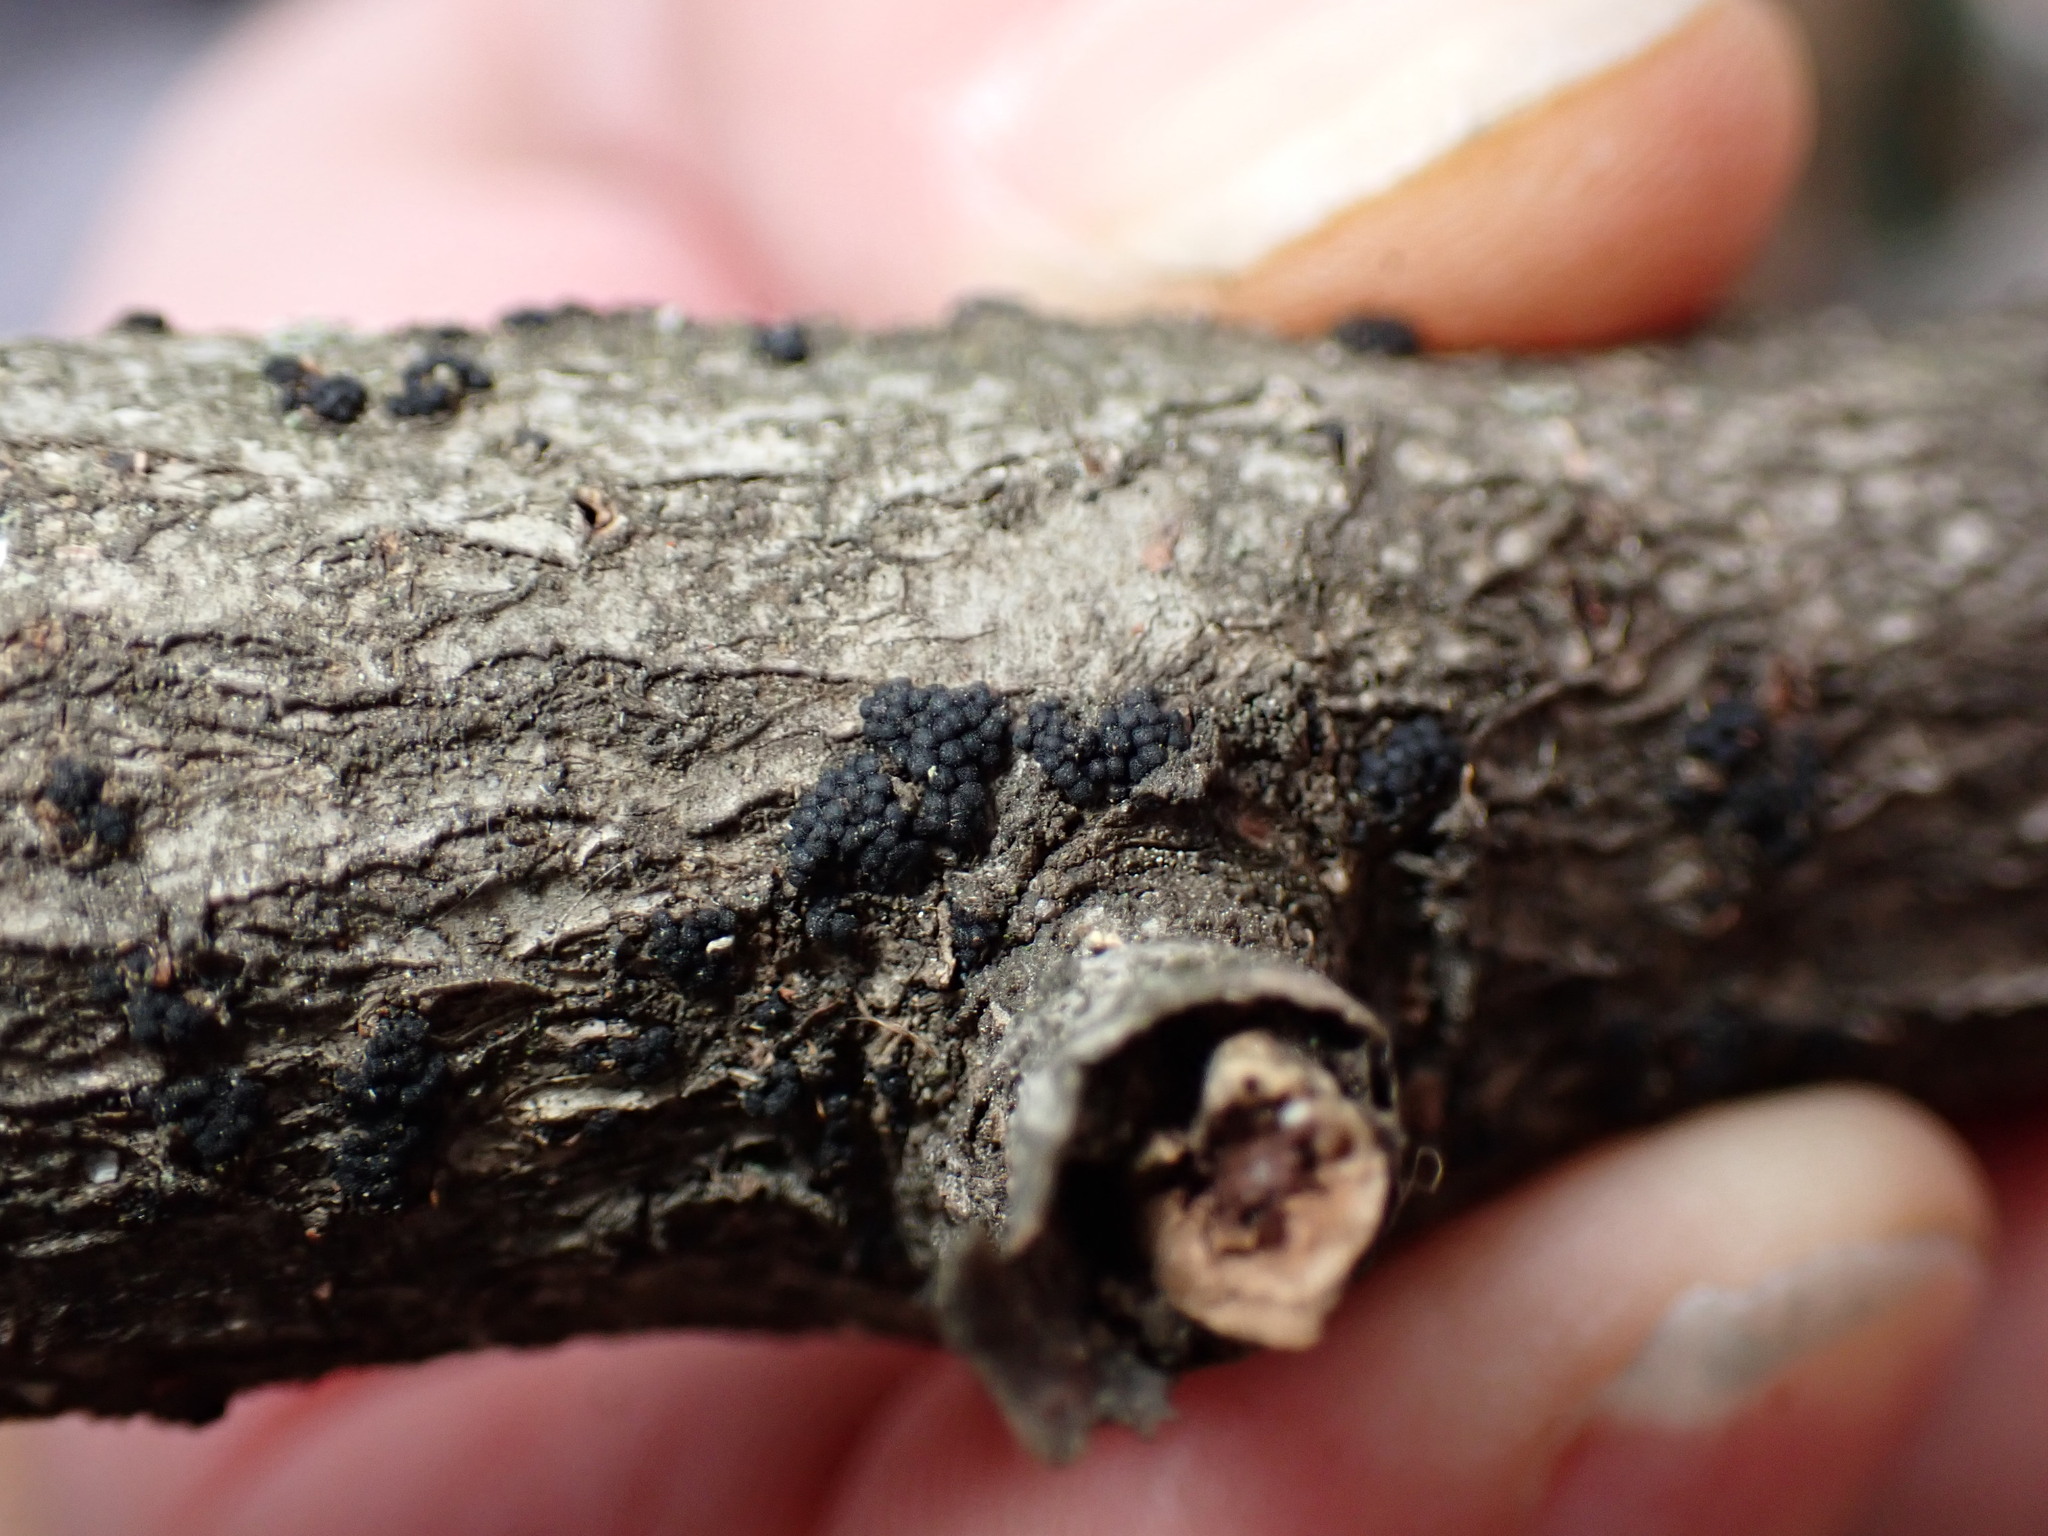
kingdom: Fungi
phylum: Ascomycota
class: Sordariomycetes
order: Coronophorales
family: Nitschkiaceae
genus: Fracchiaea
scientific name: Fracchiaea broomeana
